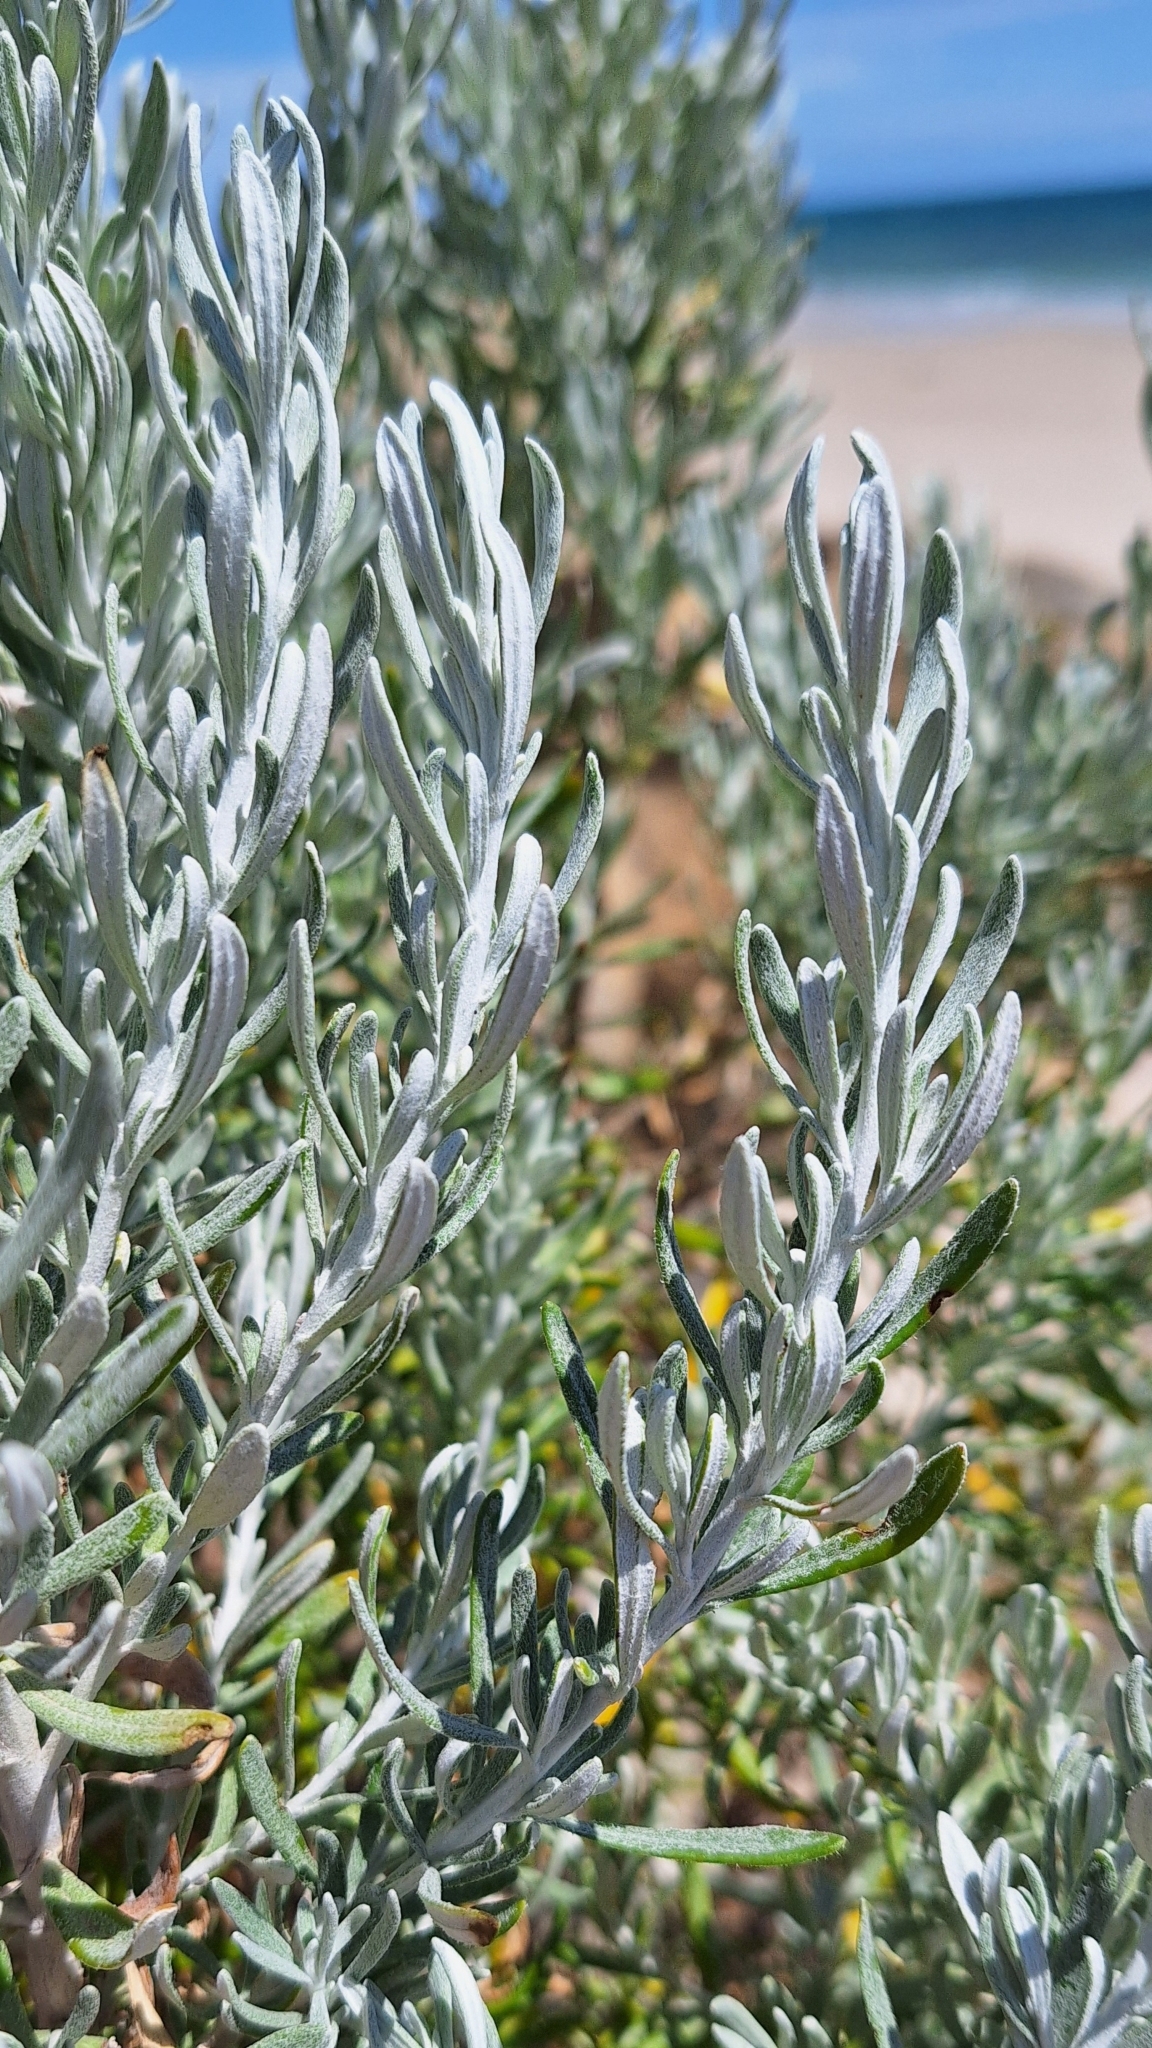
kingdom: Plantae
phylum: Tracheophyta
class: Magnoliopsida
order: Asterales
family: Asteraceae
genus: Olearia
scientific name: Olearia axillaris
